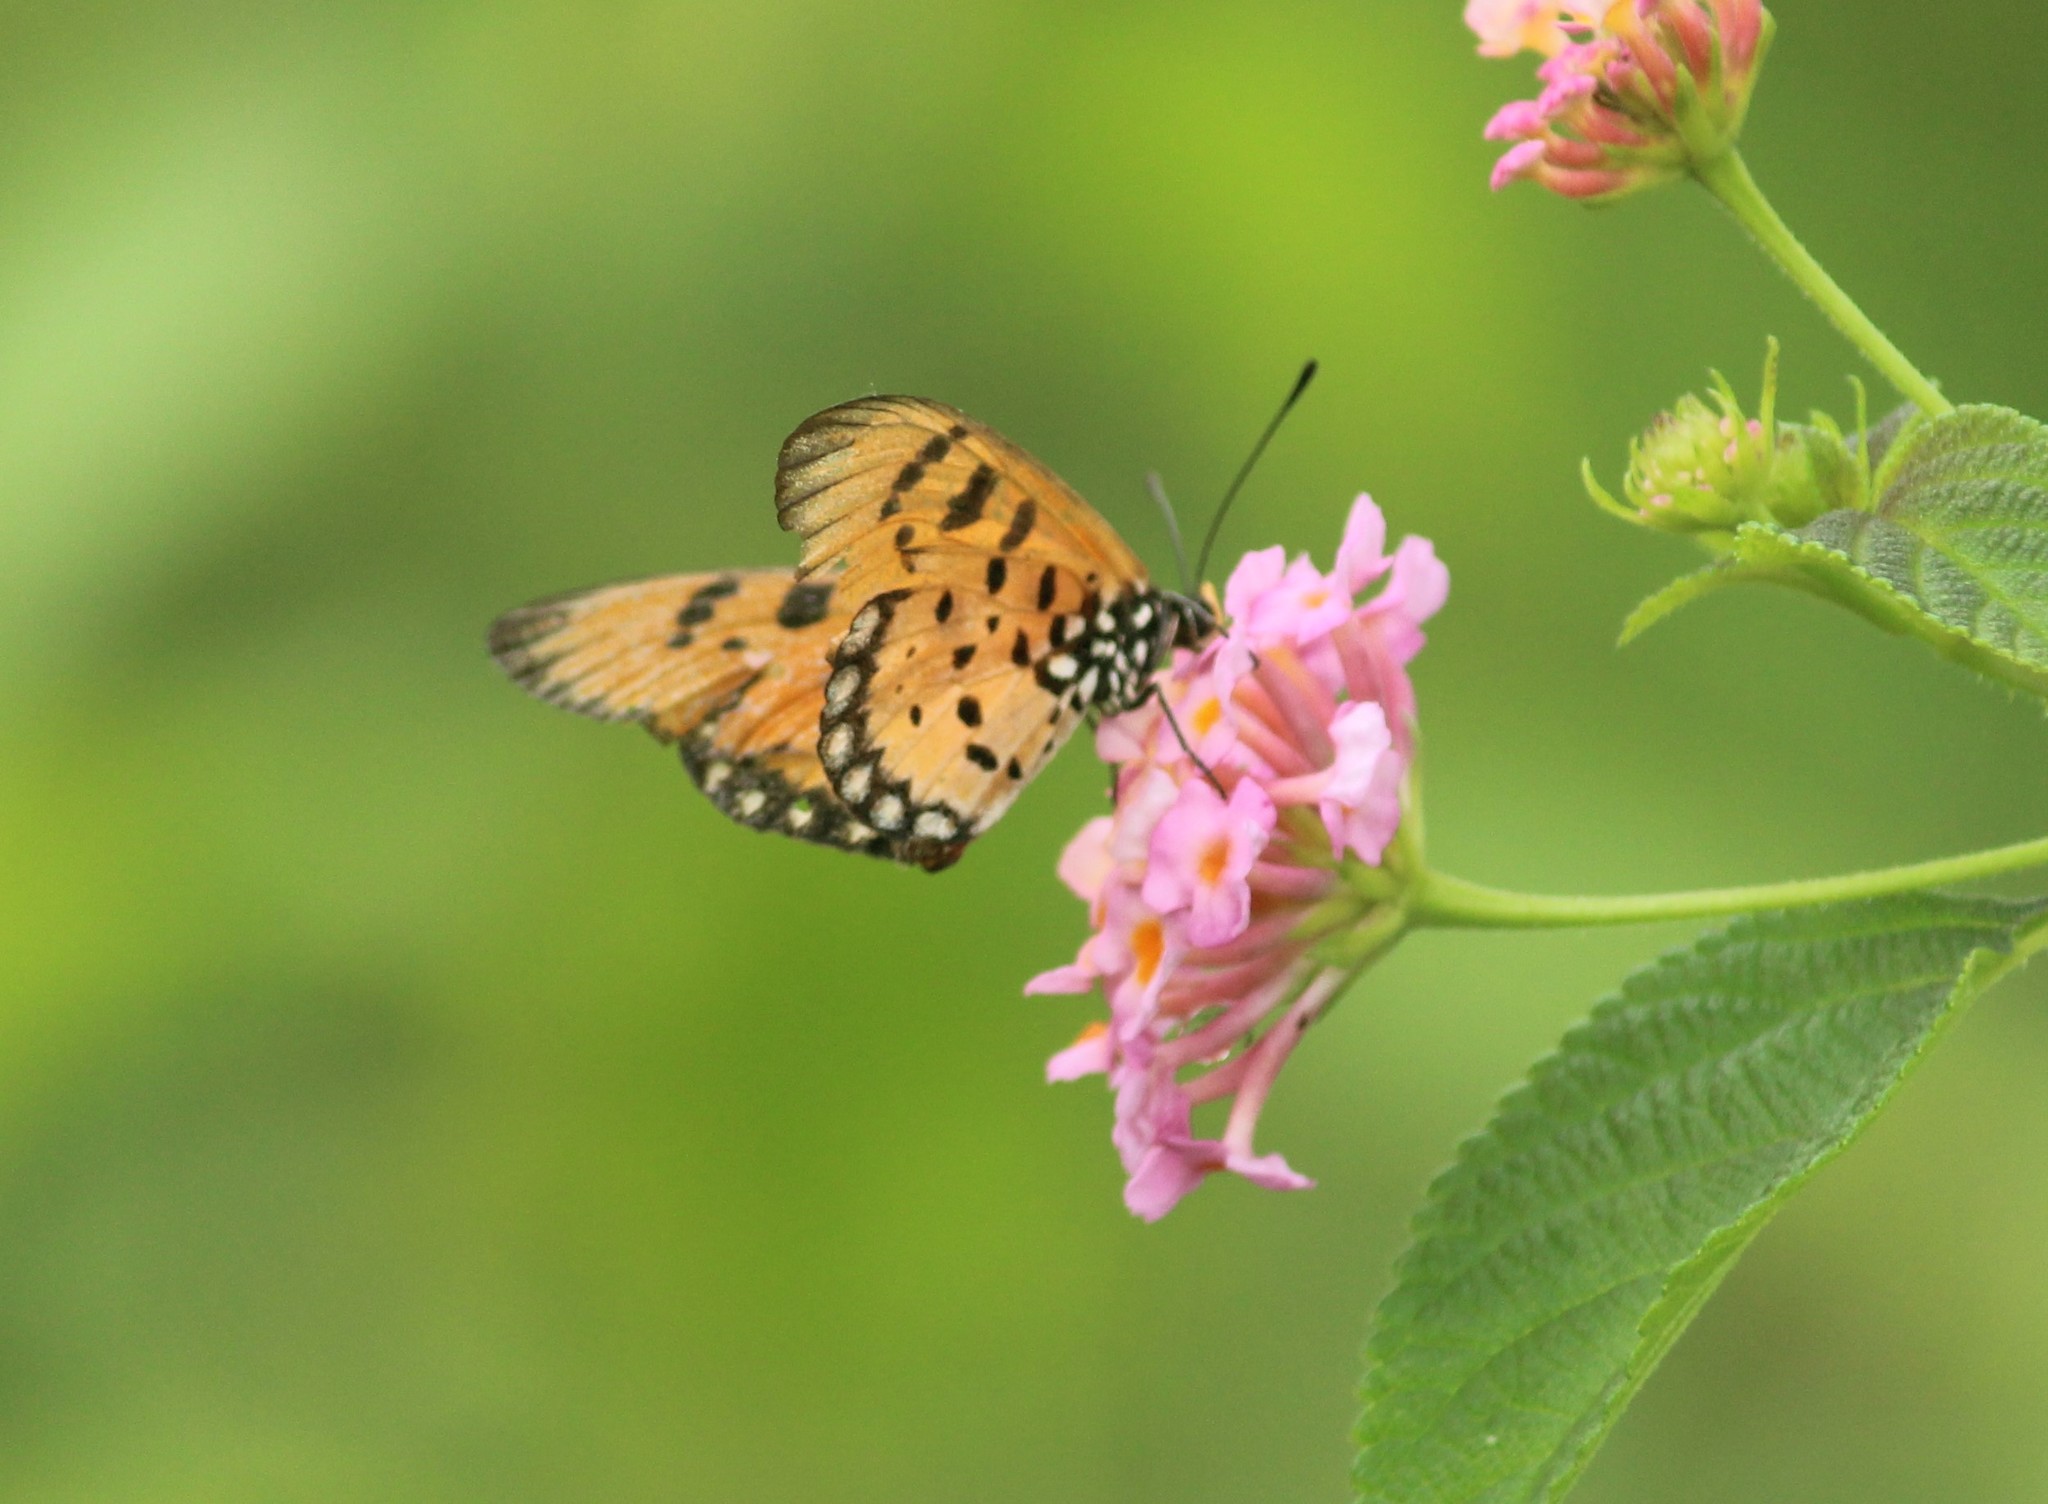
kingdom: Animalia
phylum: Arthropoda
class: Insecta
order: Lepidoptera
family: Nymphalidae
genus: Acraea
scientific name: Acraea terpsicore
